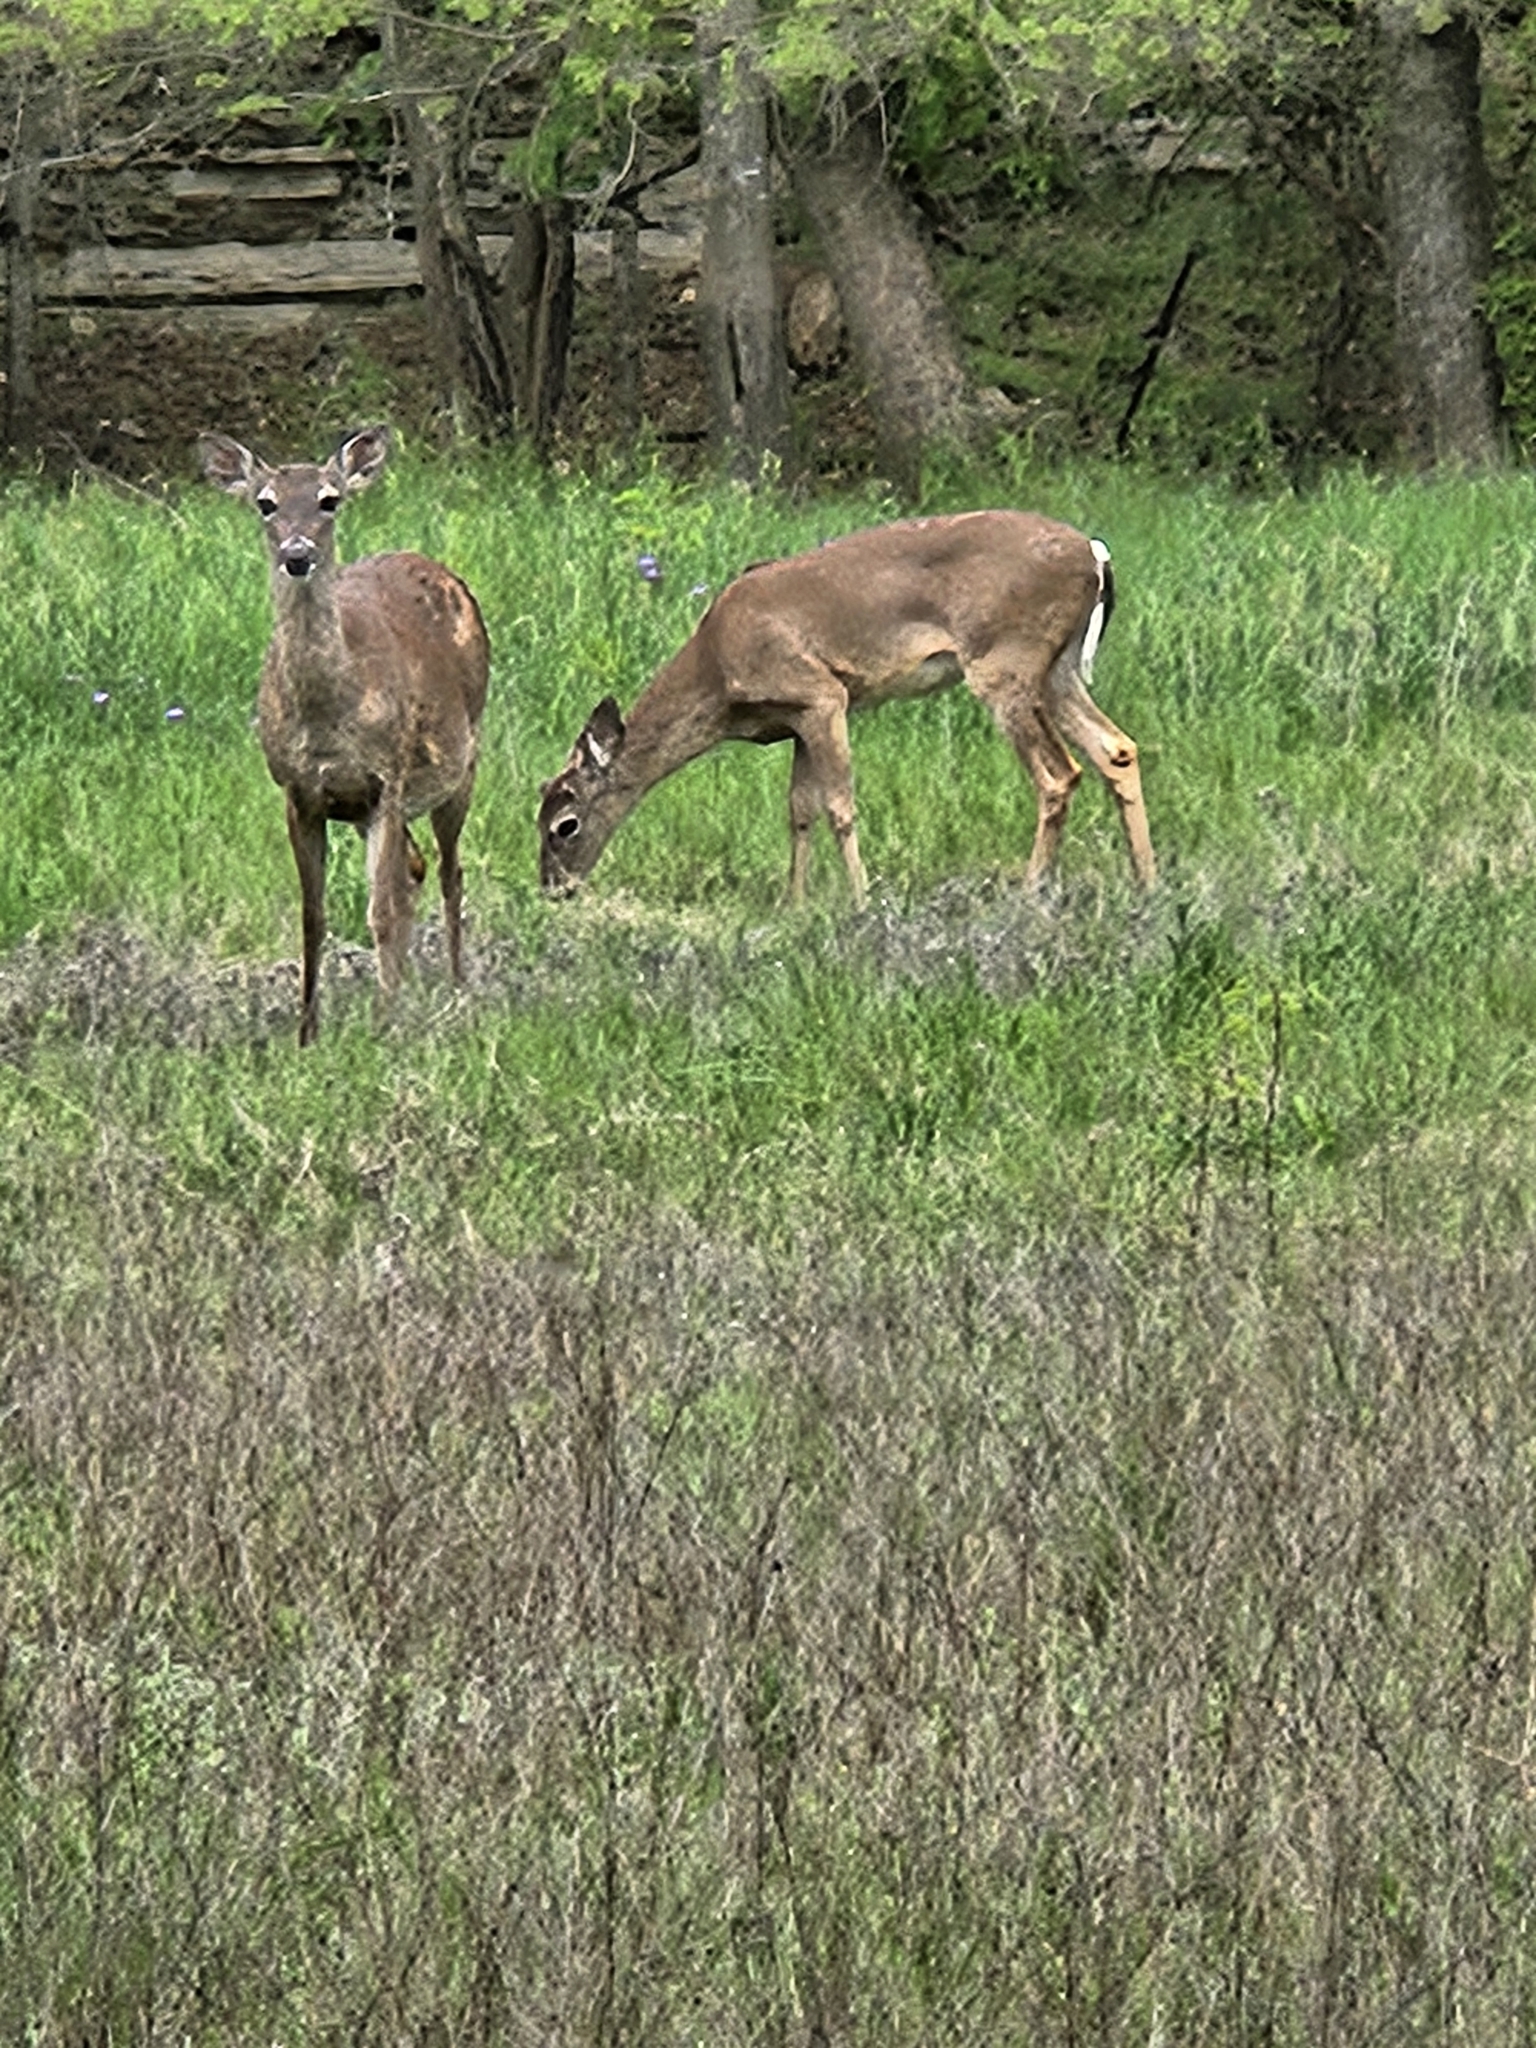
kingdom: Animalia
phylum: Chordata
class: Mammalia
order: Artiodactyla
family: Cervidae
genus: Odocoileus
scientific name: Odocoileus virginianus
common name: White-tailed deer
